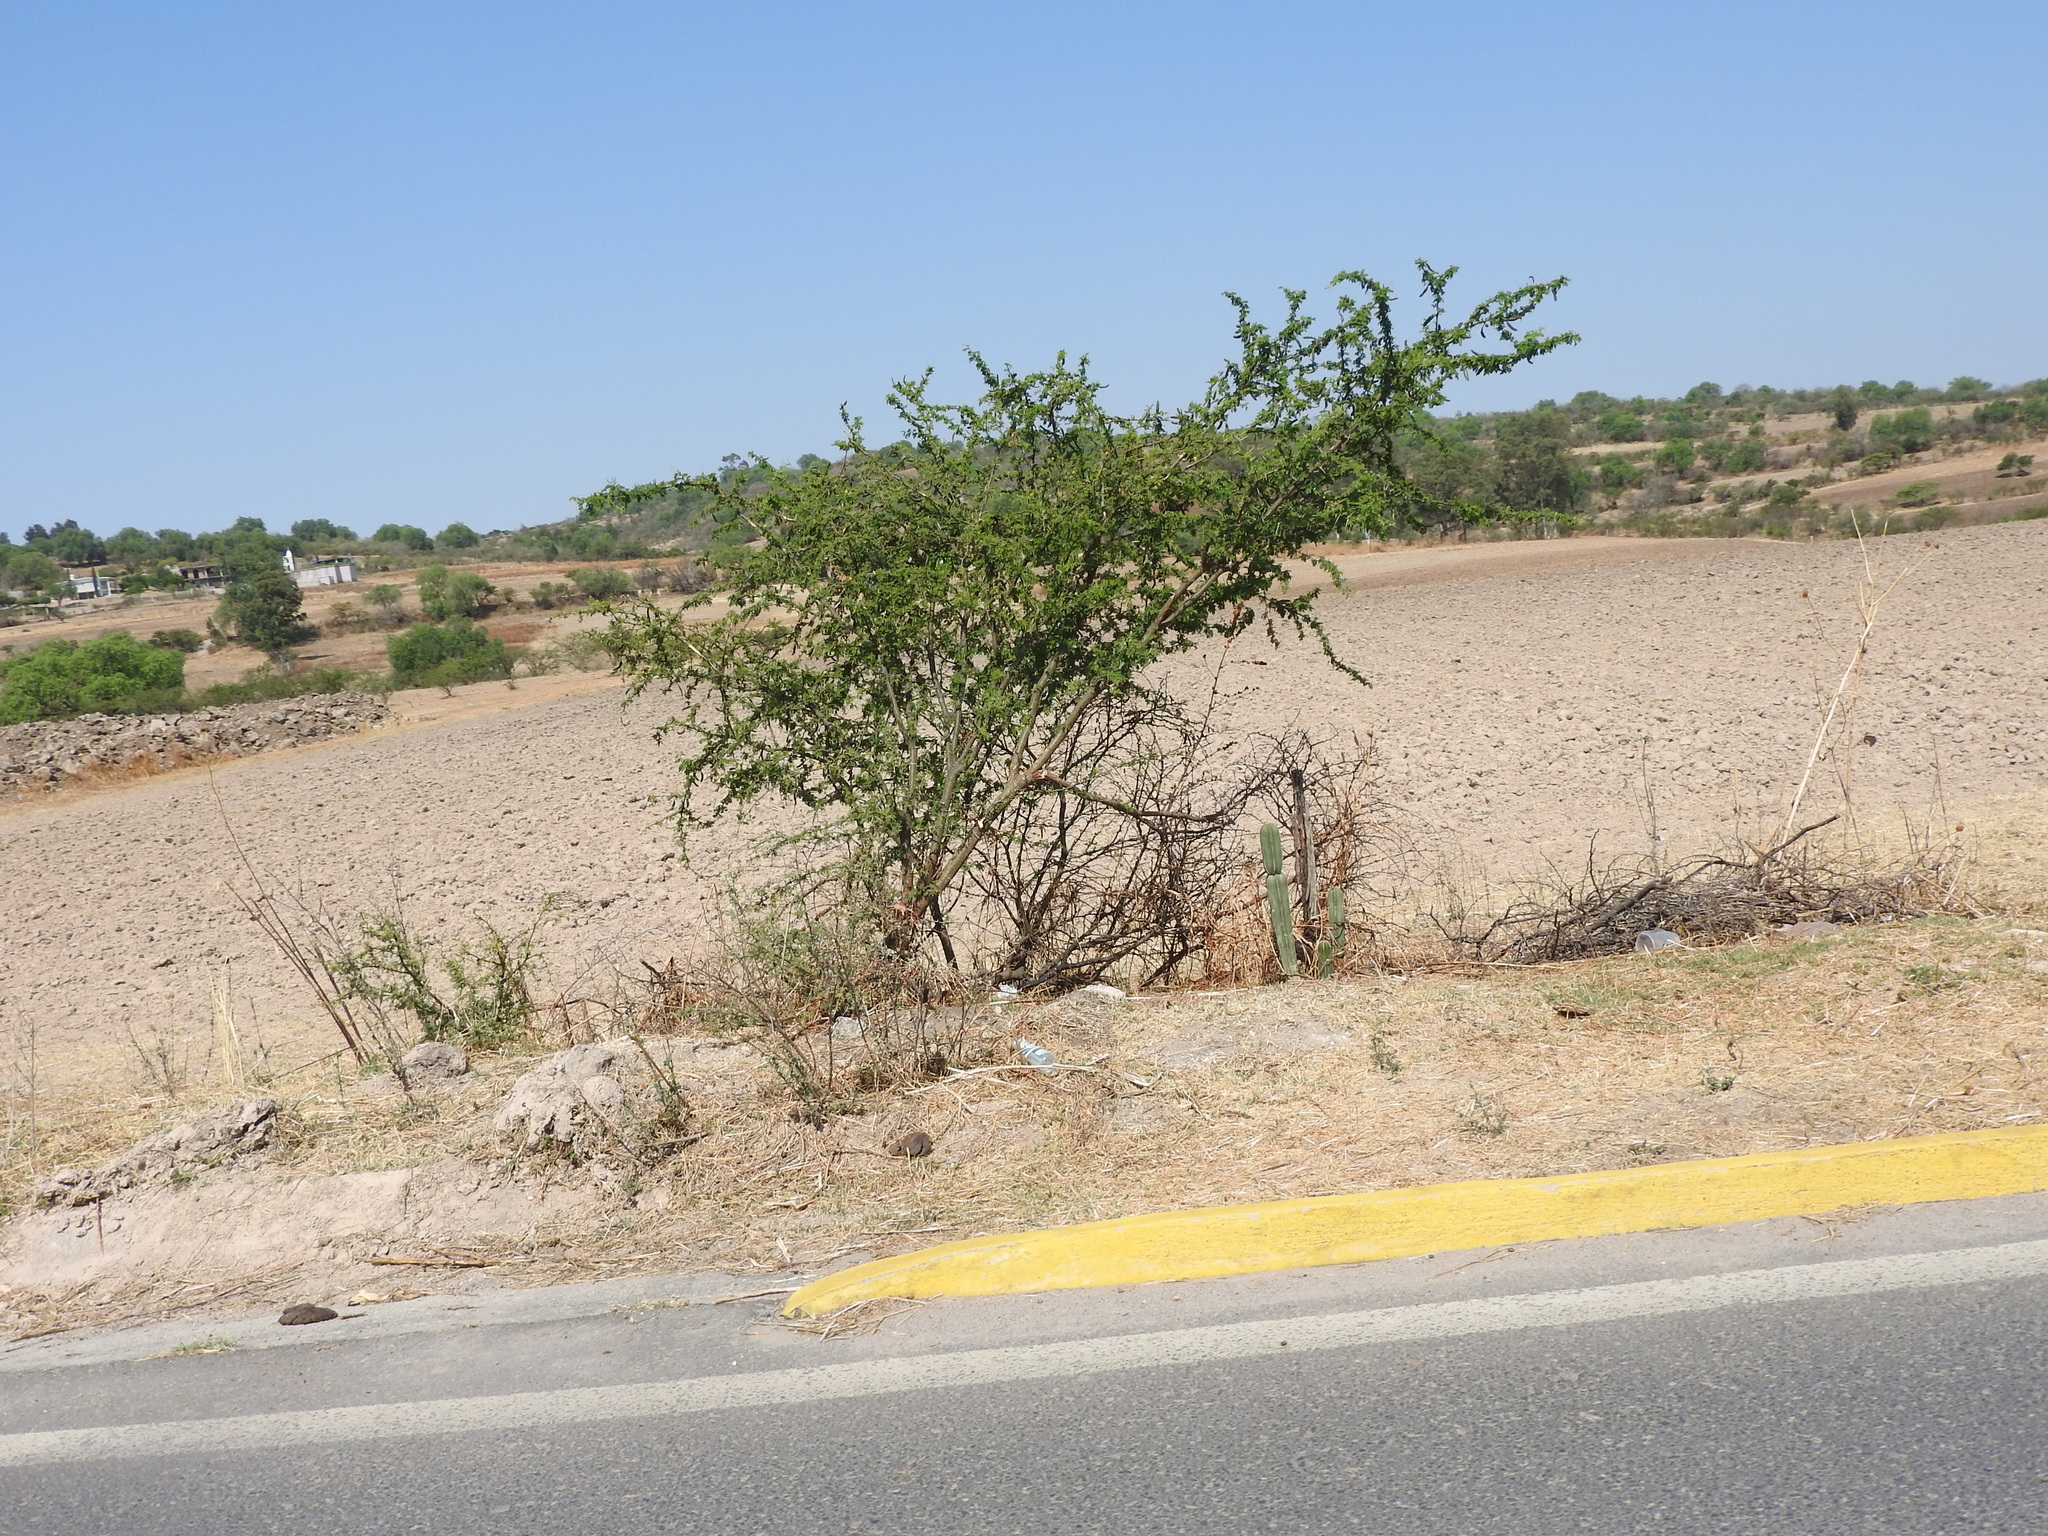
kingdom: Plantae
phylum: Tracheophyta
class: Magnoliopsida
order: Fabales
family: Fabaceae
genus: Vachellia
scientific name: Vachellia farnesiana
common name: Sweet acacia
